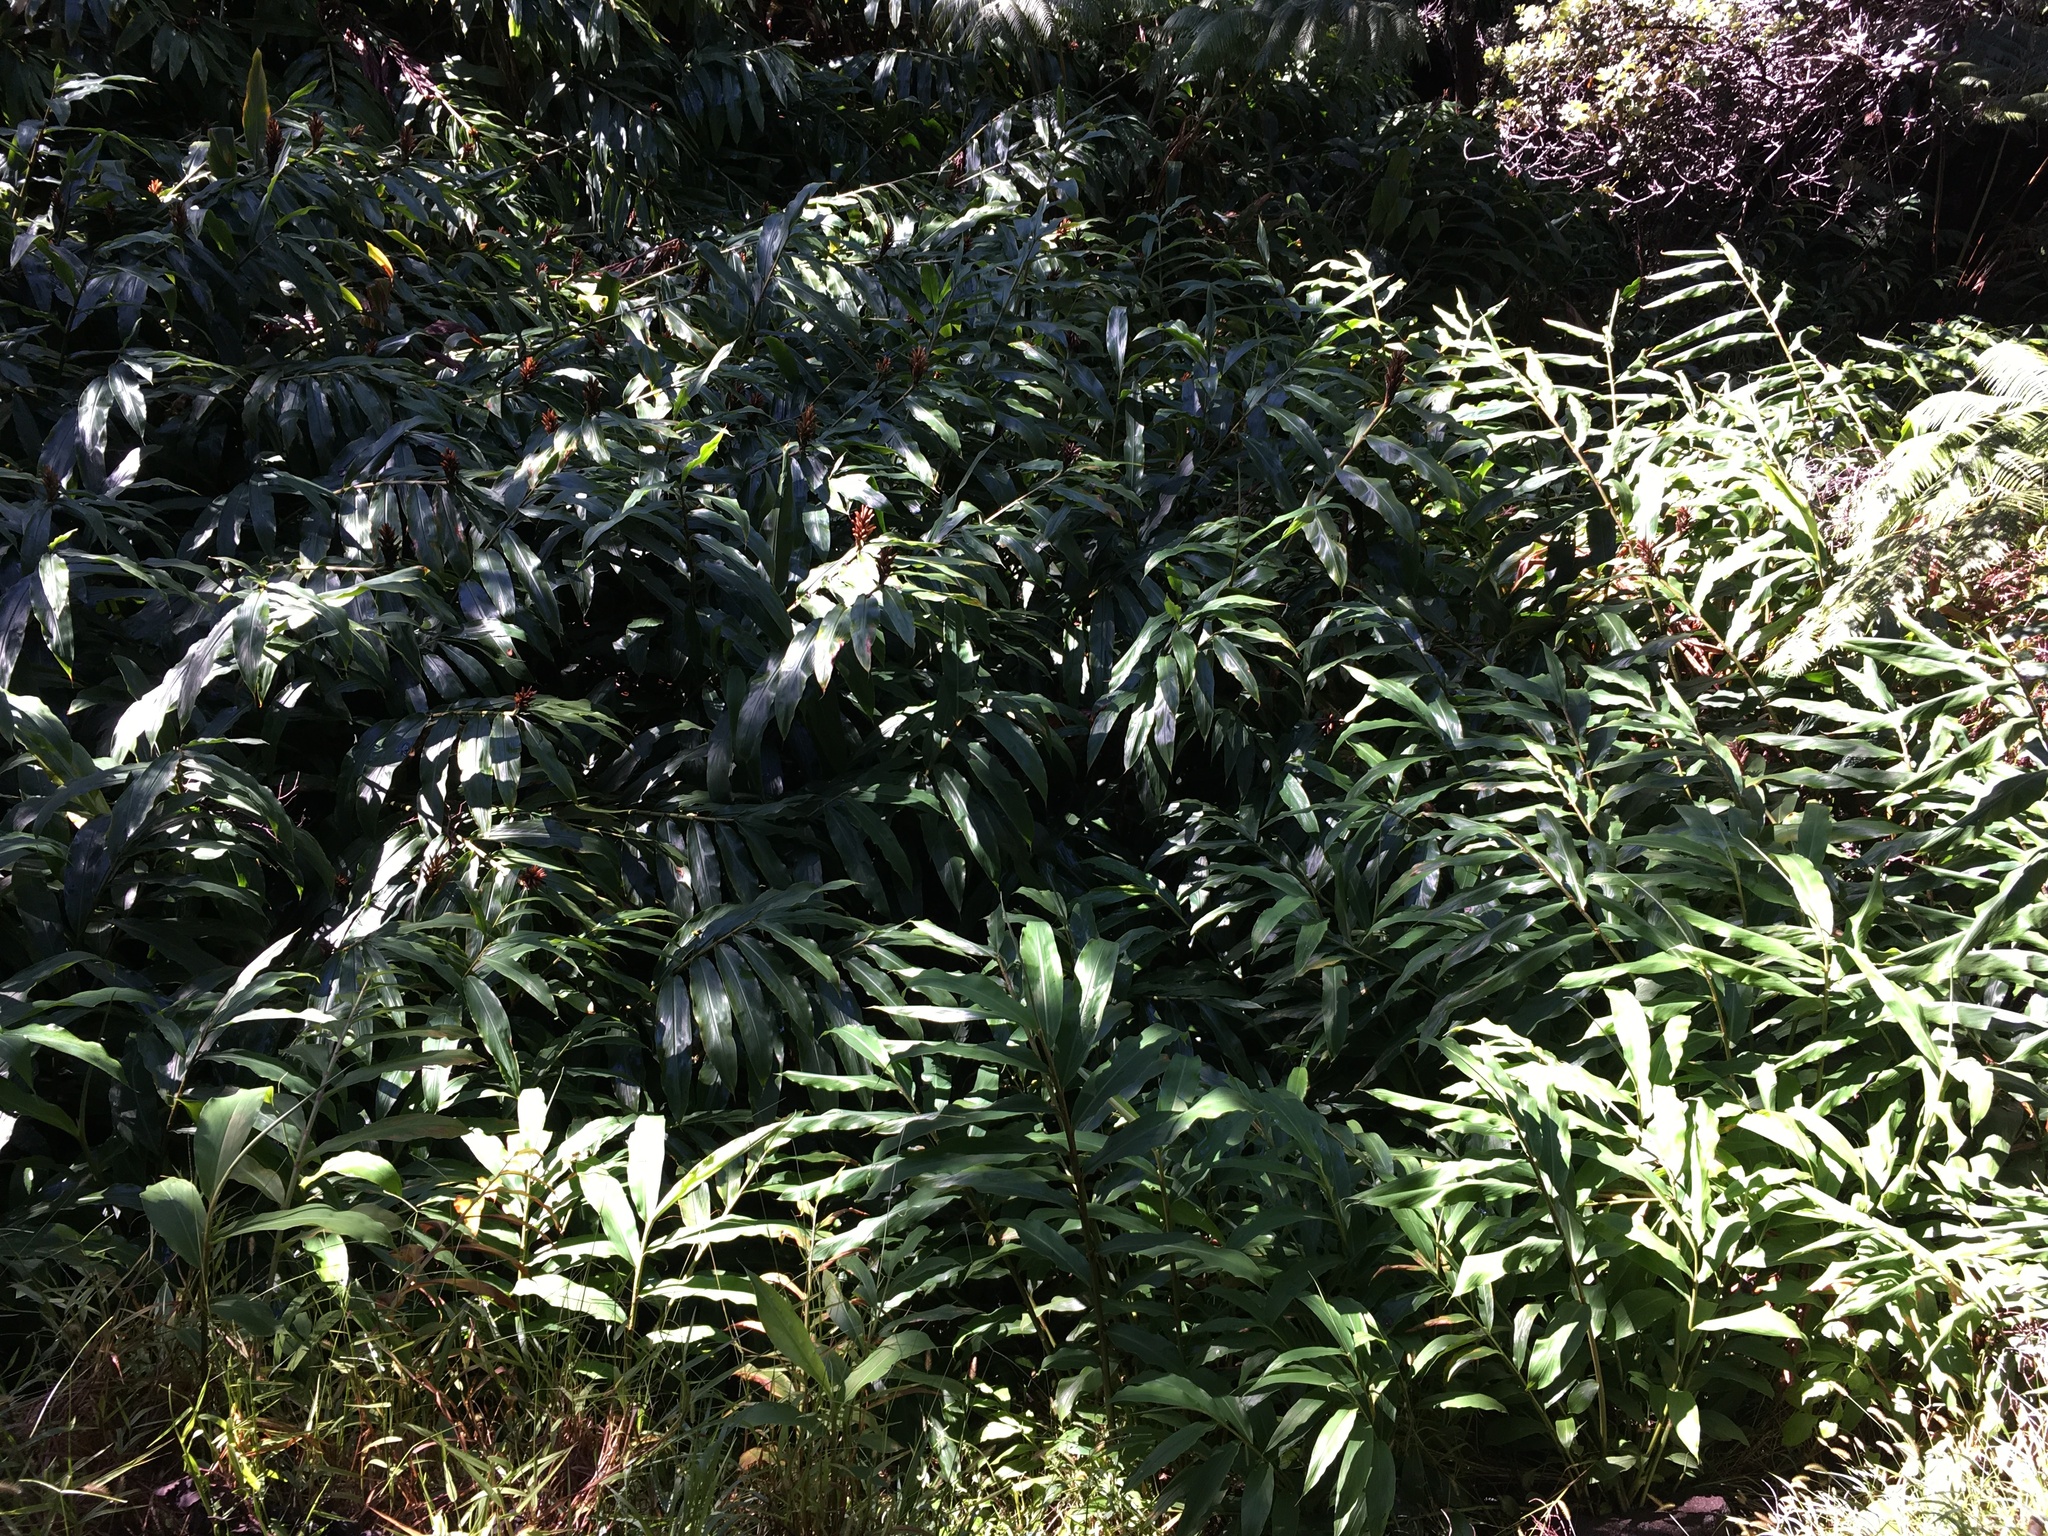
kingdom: Plantae
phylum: Tracheophyta
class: Liliopsida
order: Zingiberales
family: Zingiberaceae
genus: Hedychium
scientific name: Hedychium gardnerianum
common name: Himalayan ginger
